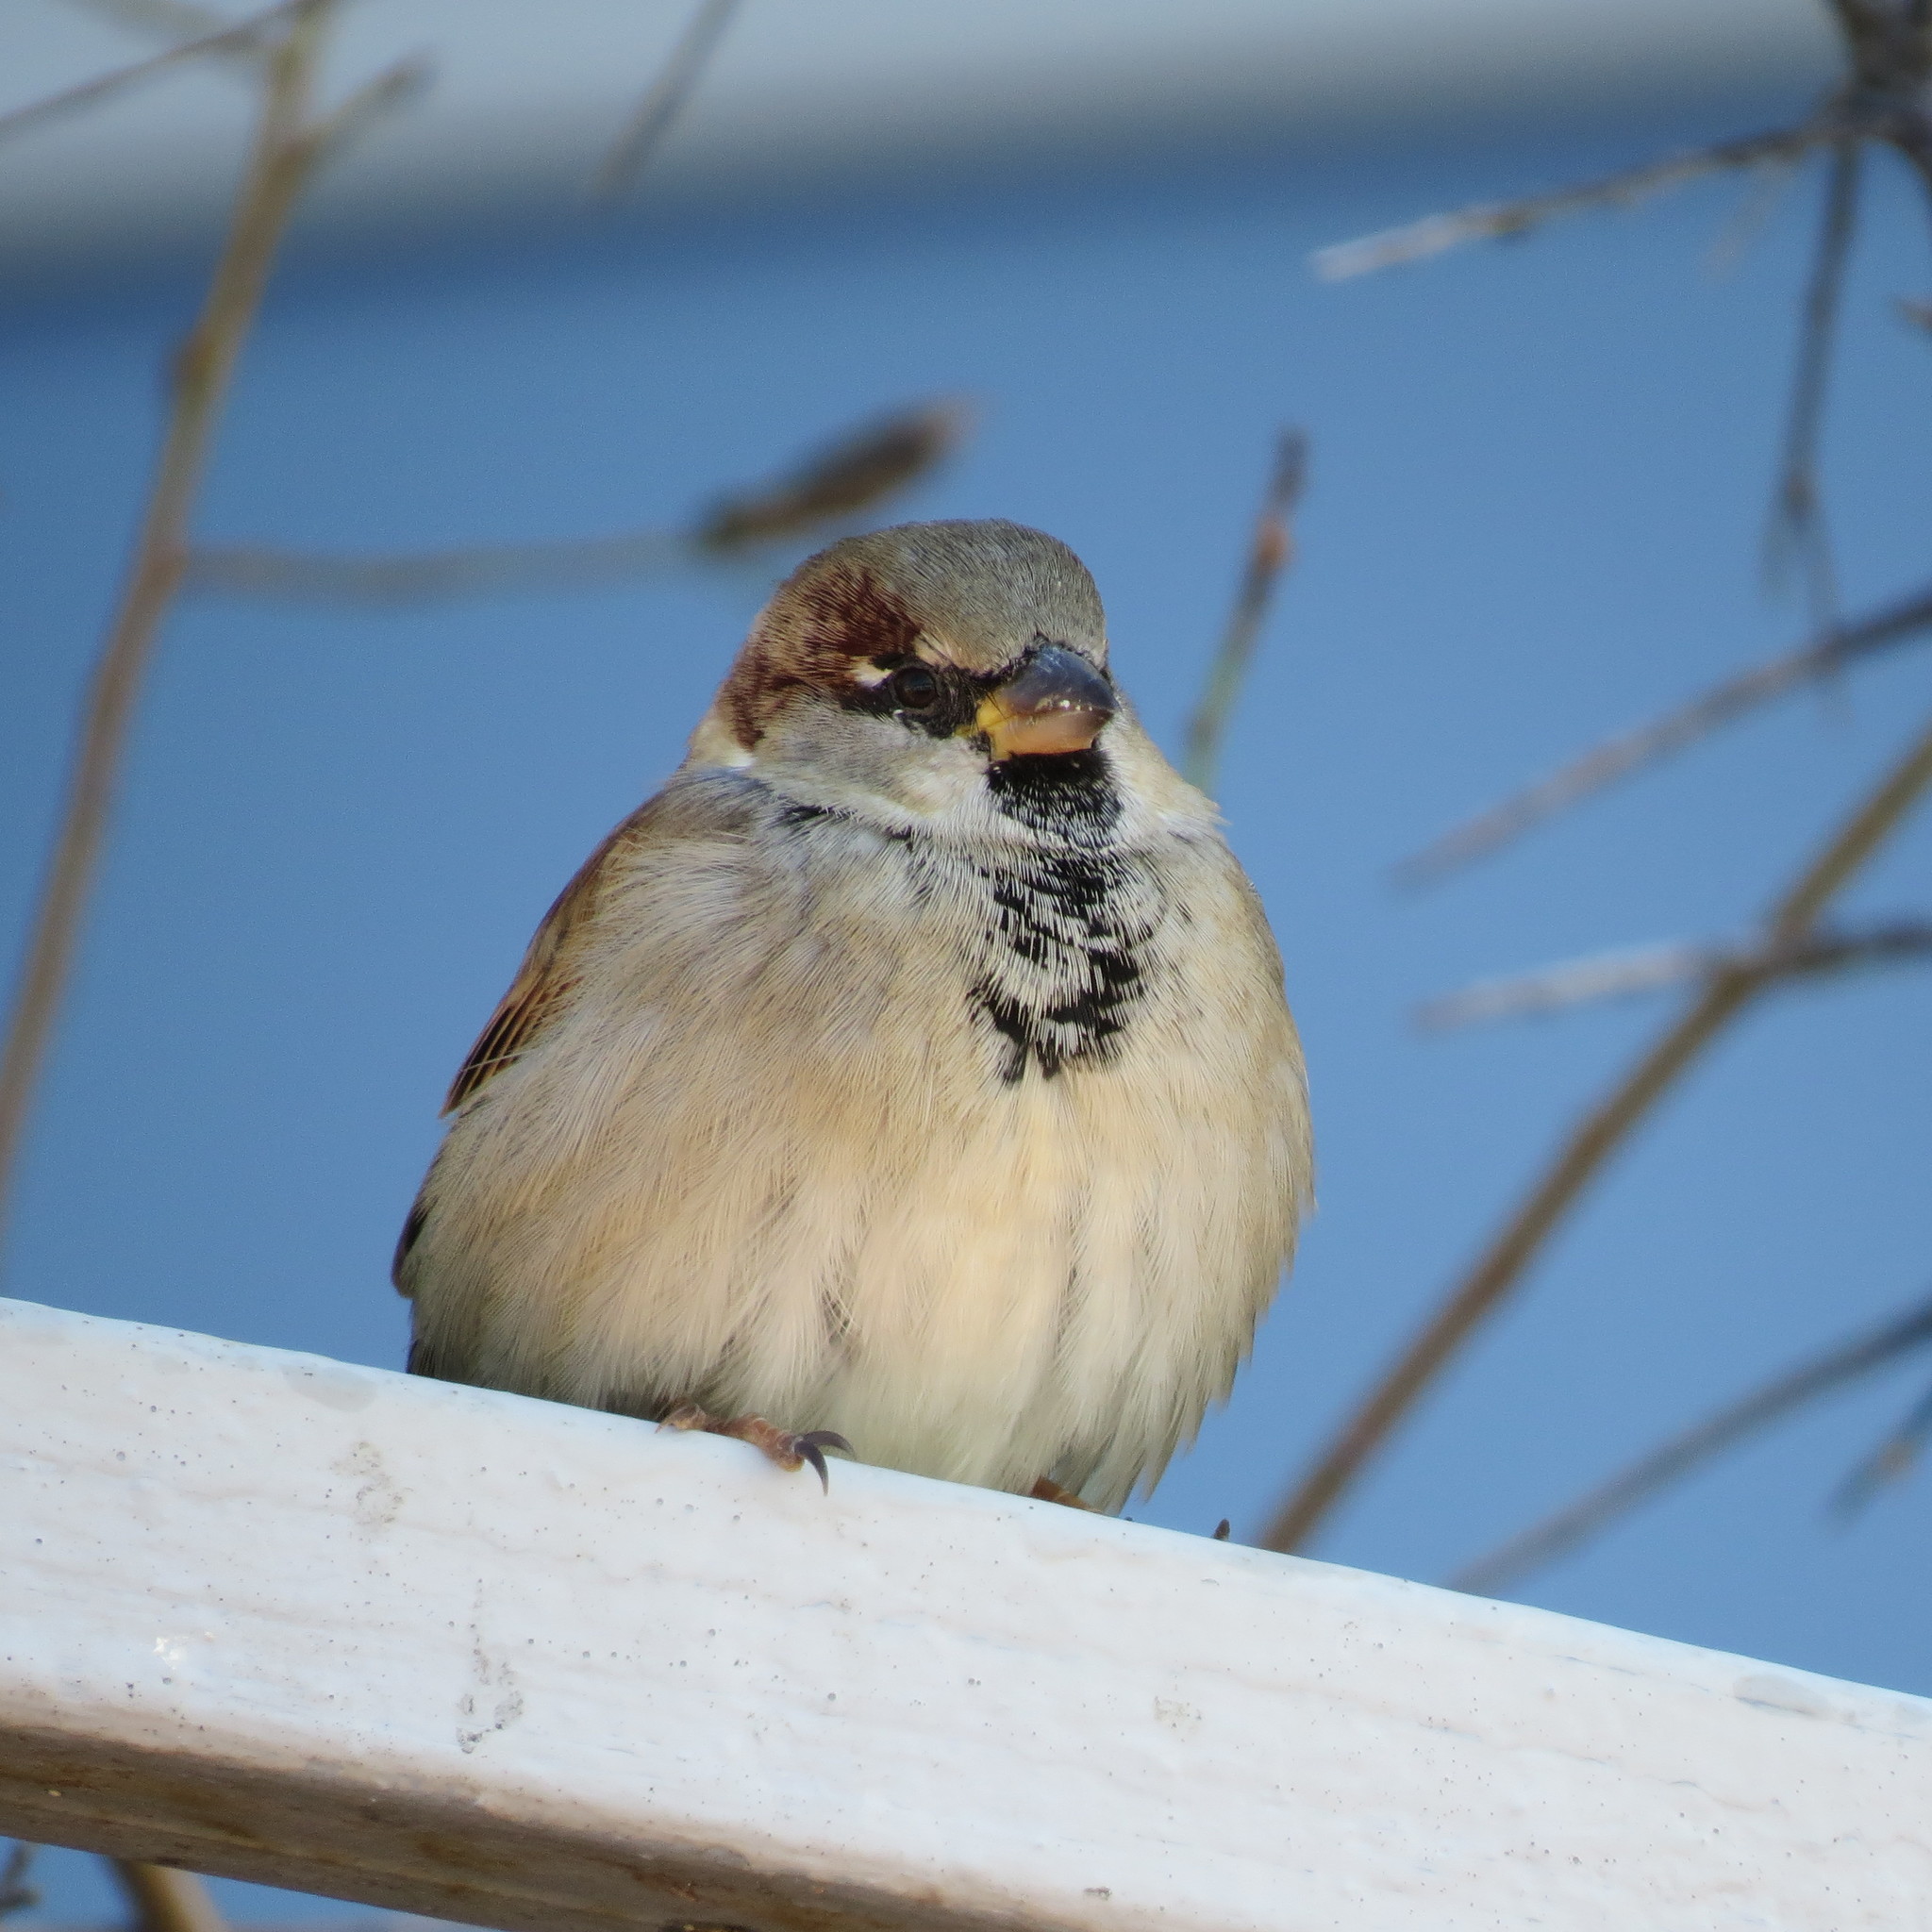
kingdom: Animalia
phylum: Chordata
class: Aves
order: Passeriformes
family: Passeridae
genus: Passer
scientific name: Passer domesticus
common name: House sparrow
